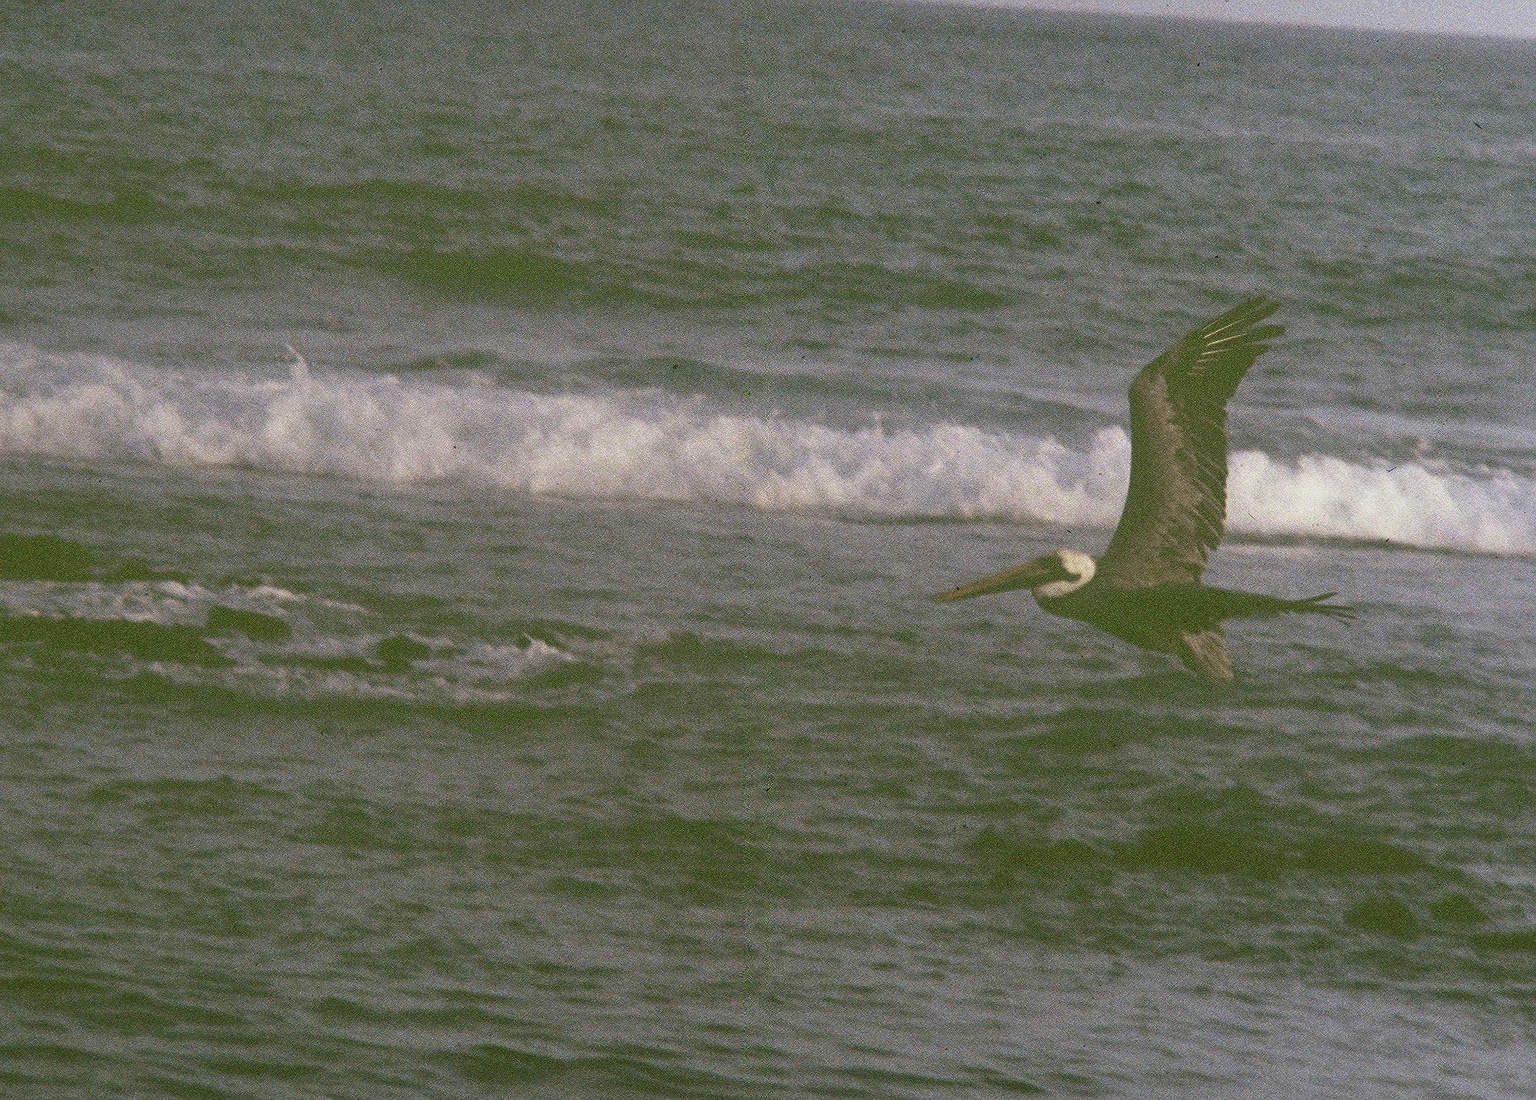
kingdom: Animalia
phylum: Chordata
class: Aves
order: Pelecaniformes
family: Pelecanidae
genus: Pelecanus
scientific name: Pelecanus occidentalis
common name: Brown pelican
